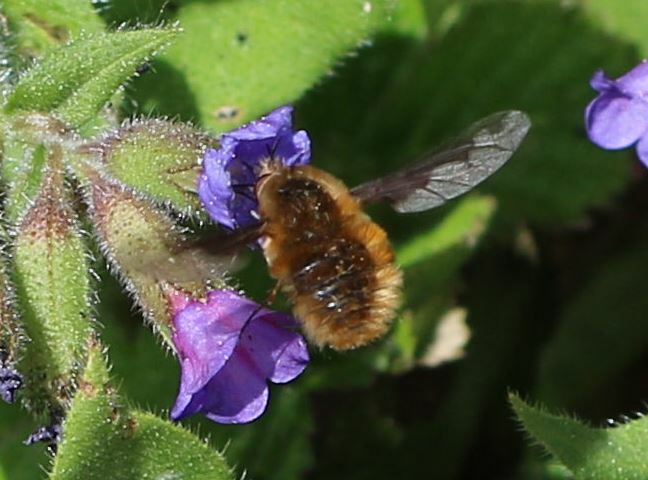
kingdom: Animalia
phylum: Arthropoda
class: Insecta
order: Diptera
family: Bombyliidae
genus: Bombylius
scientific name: Bombylius major
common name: Bee fly
